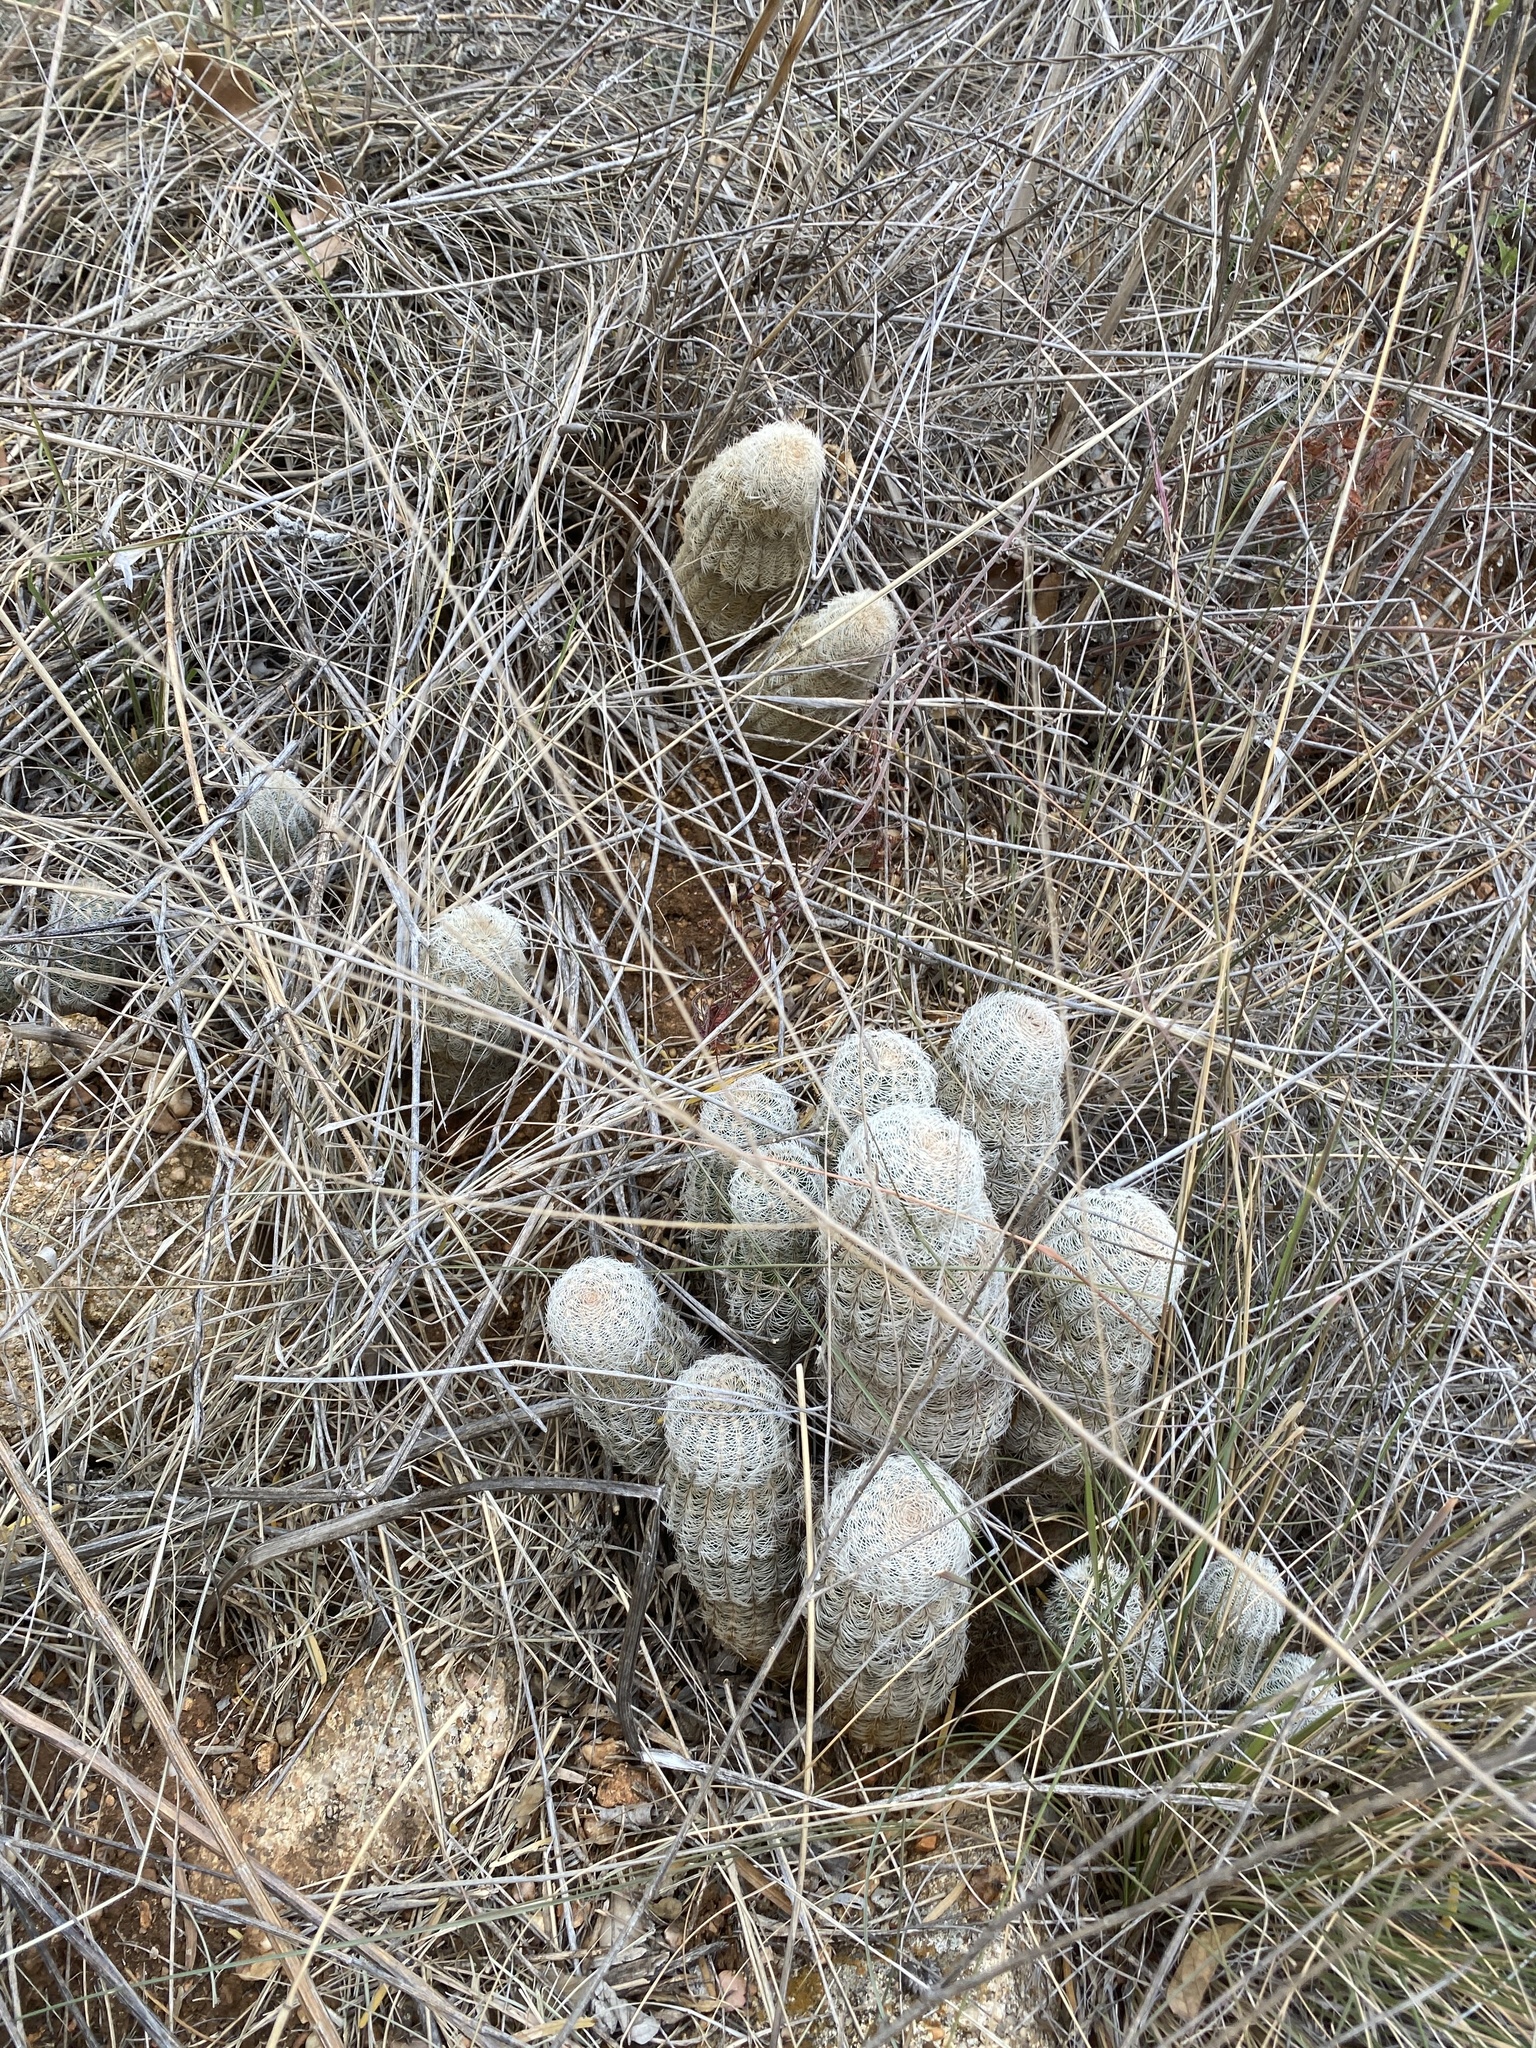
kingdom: Plantae
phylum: Tracheophyta
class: Magnoliopsida
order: Caryophyllales
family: Cactaceae
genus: Echinocereus
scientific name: Echinocereus reichenbachii
